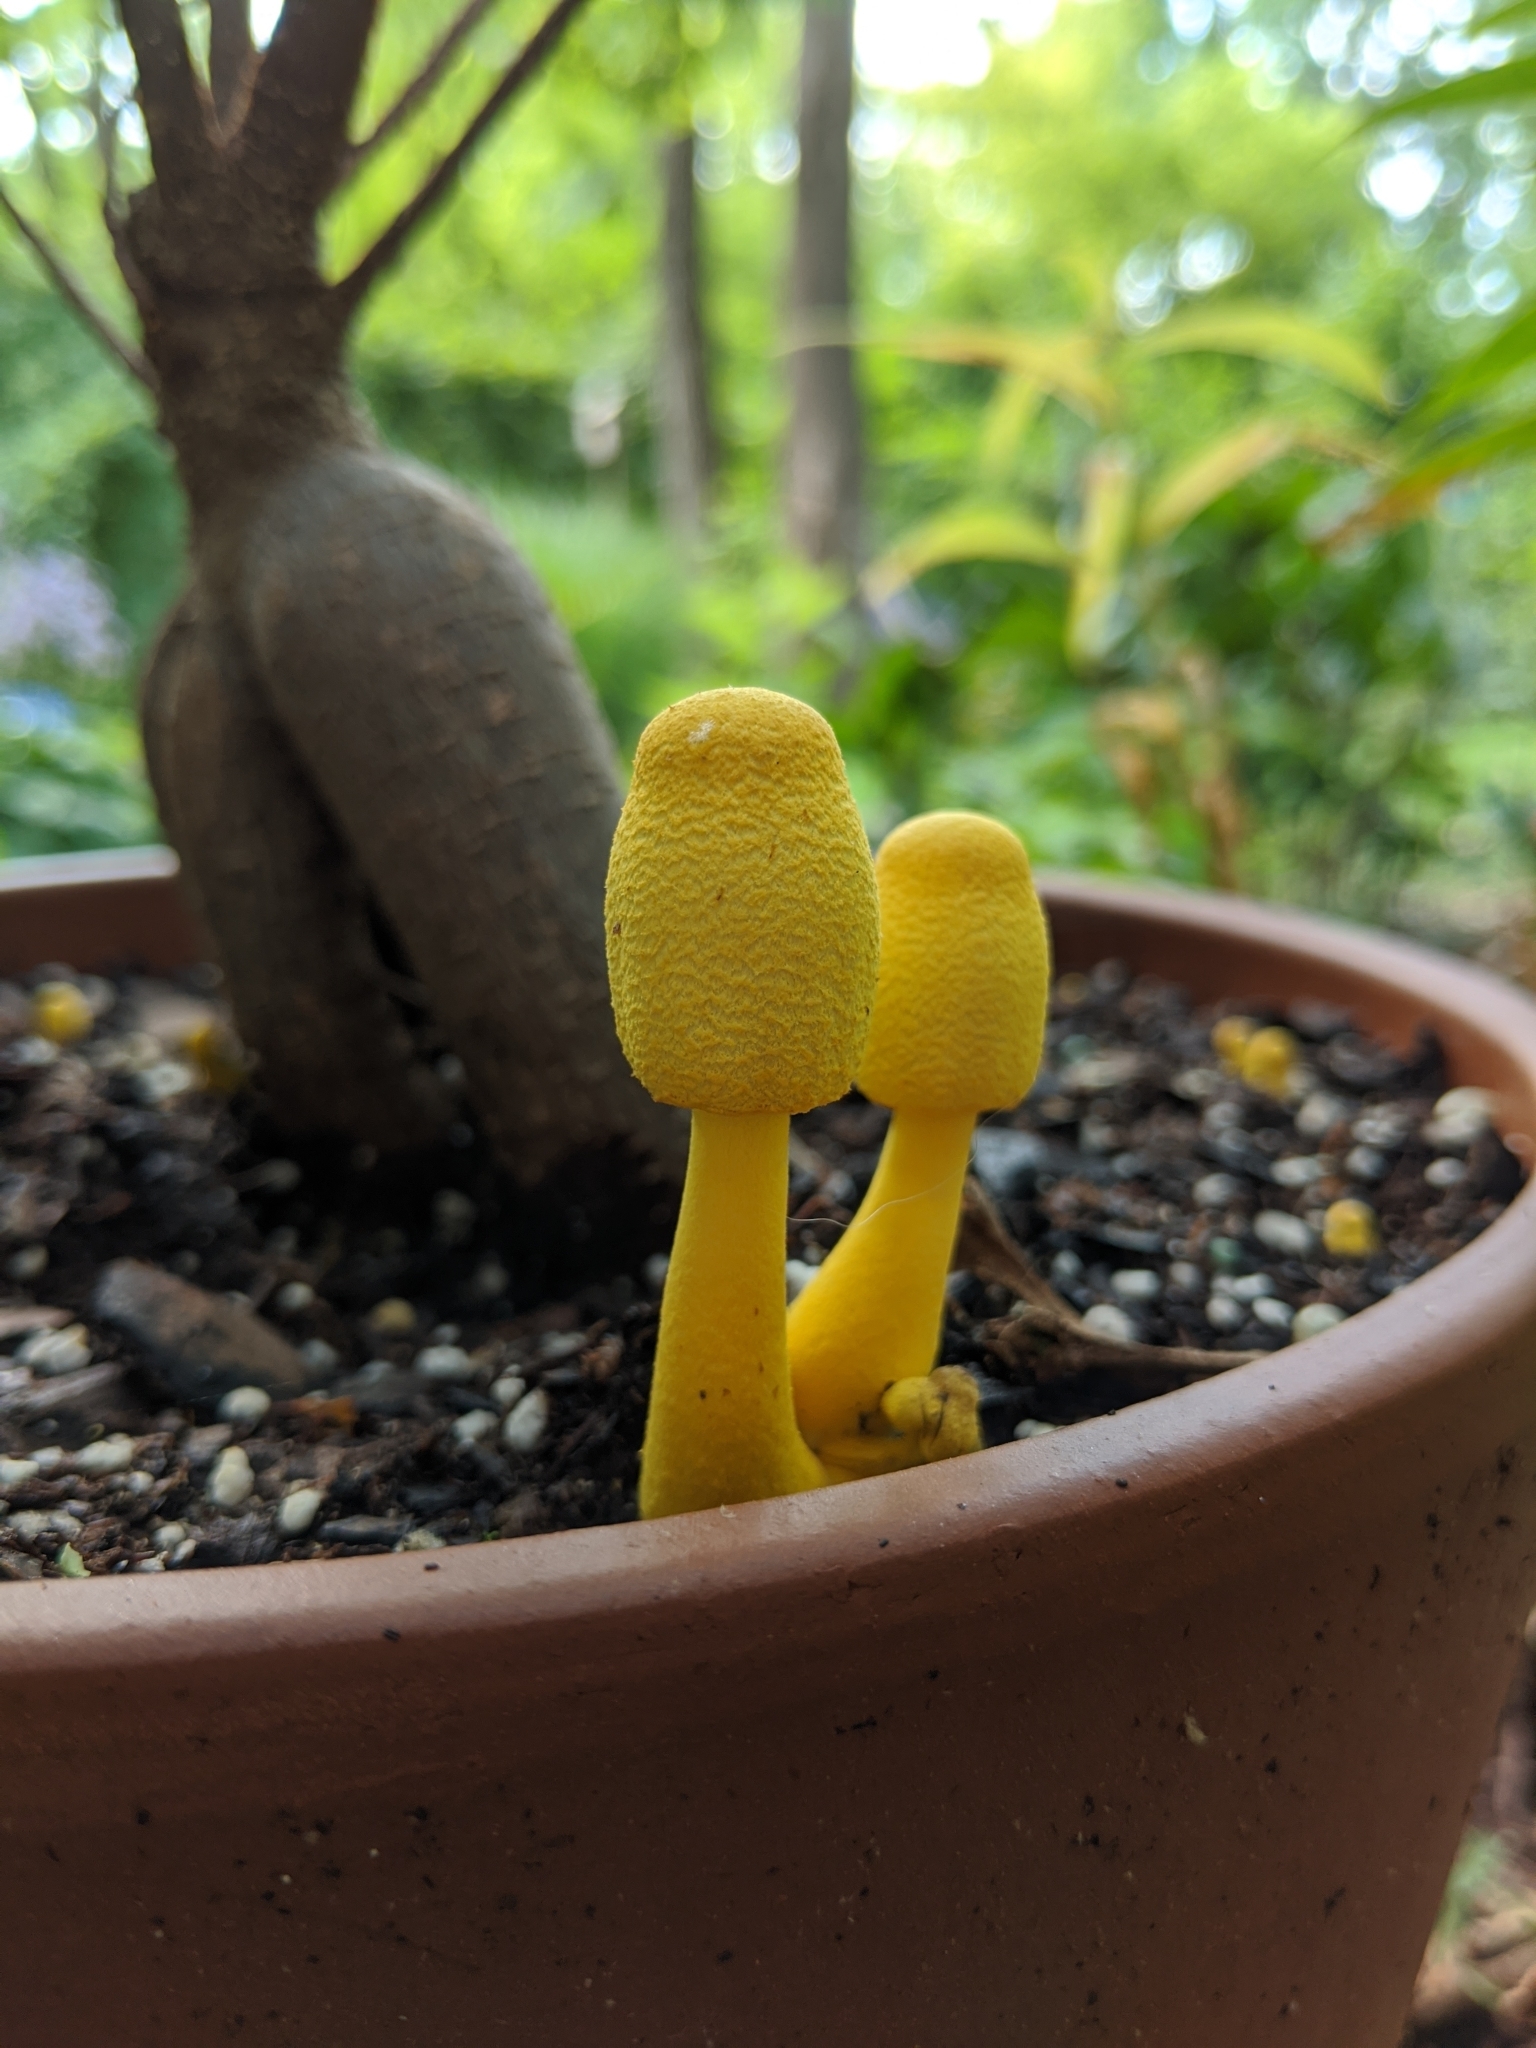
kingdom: Fungi
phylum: Basidiomycota
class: Agaricomycetes
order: Agaricales
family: Agaricaceae
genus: Leucocoprinus
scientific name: Leucocoprinus birnbaumii
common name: Plantpot dapperling
